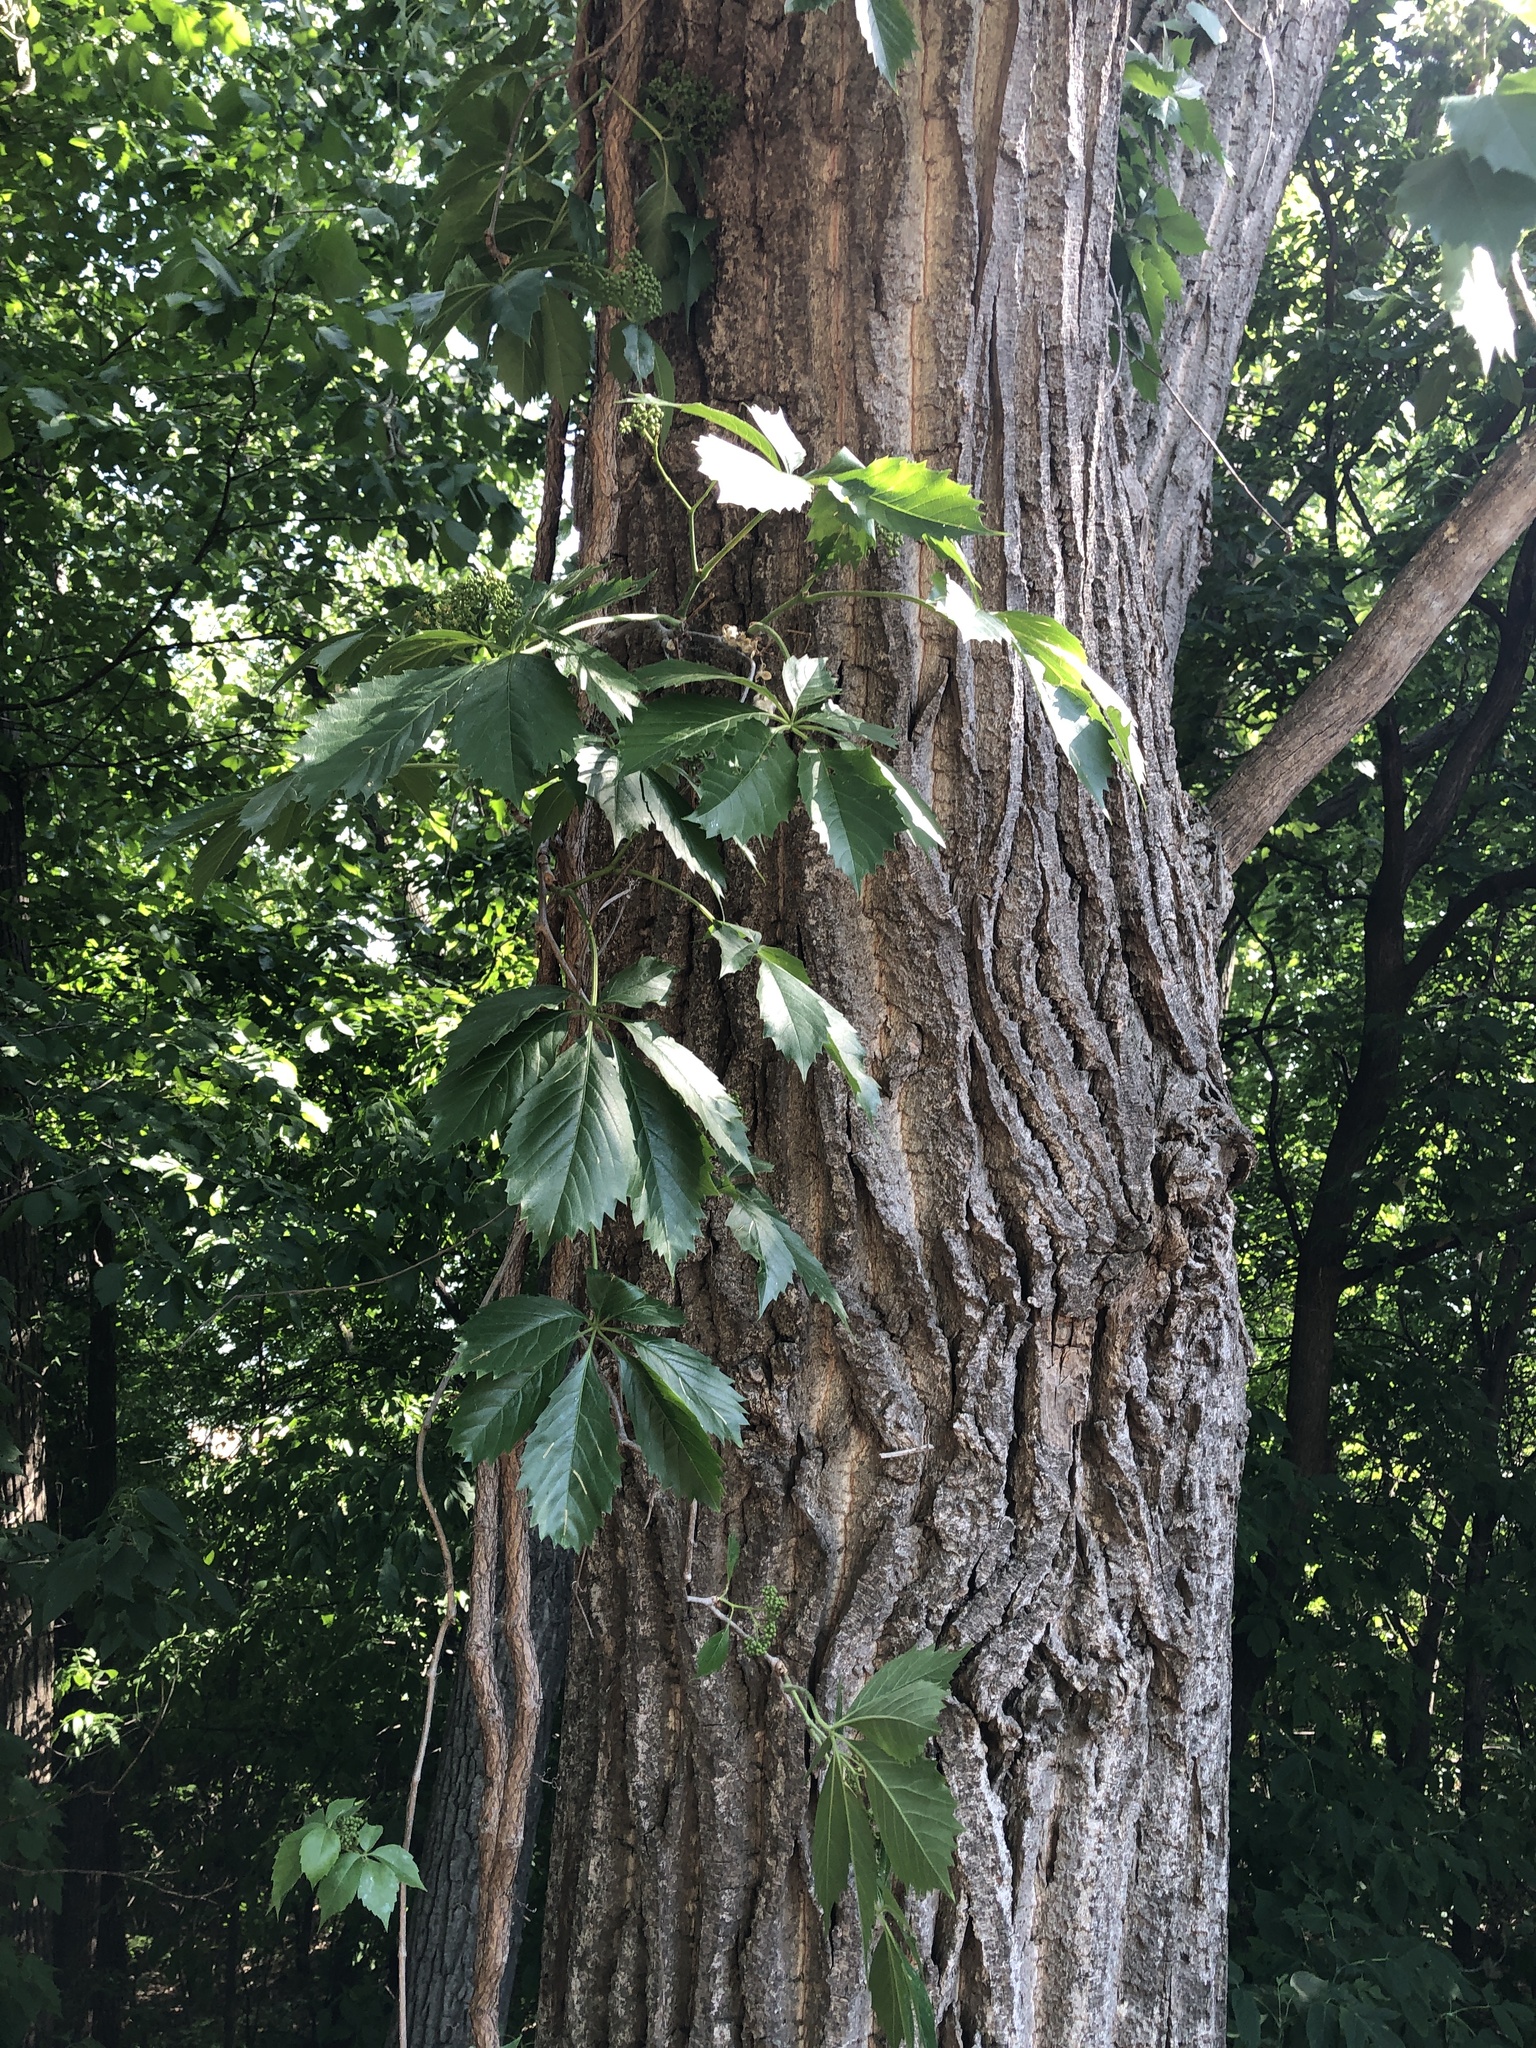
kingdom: Plantae
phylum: Tracheophyta
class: Magnoliopsida
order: Vitales
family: Vitaceae
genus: Parthenocissus
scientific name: Parthenocissus quinquefolia
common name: Virginia-creeper
